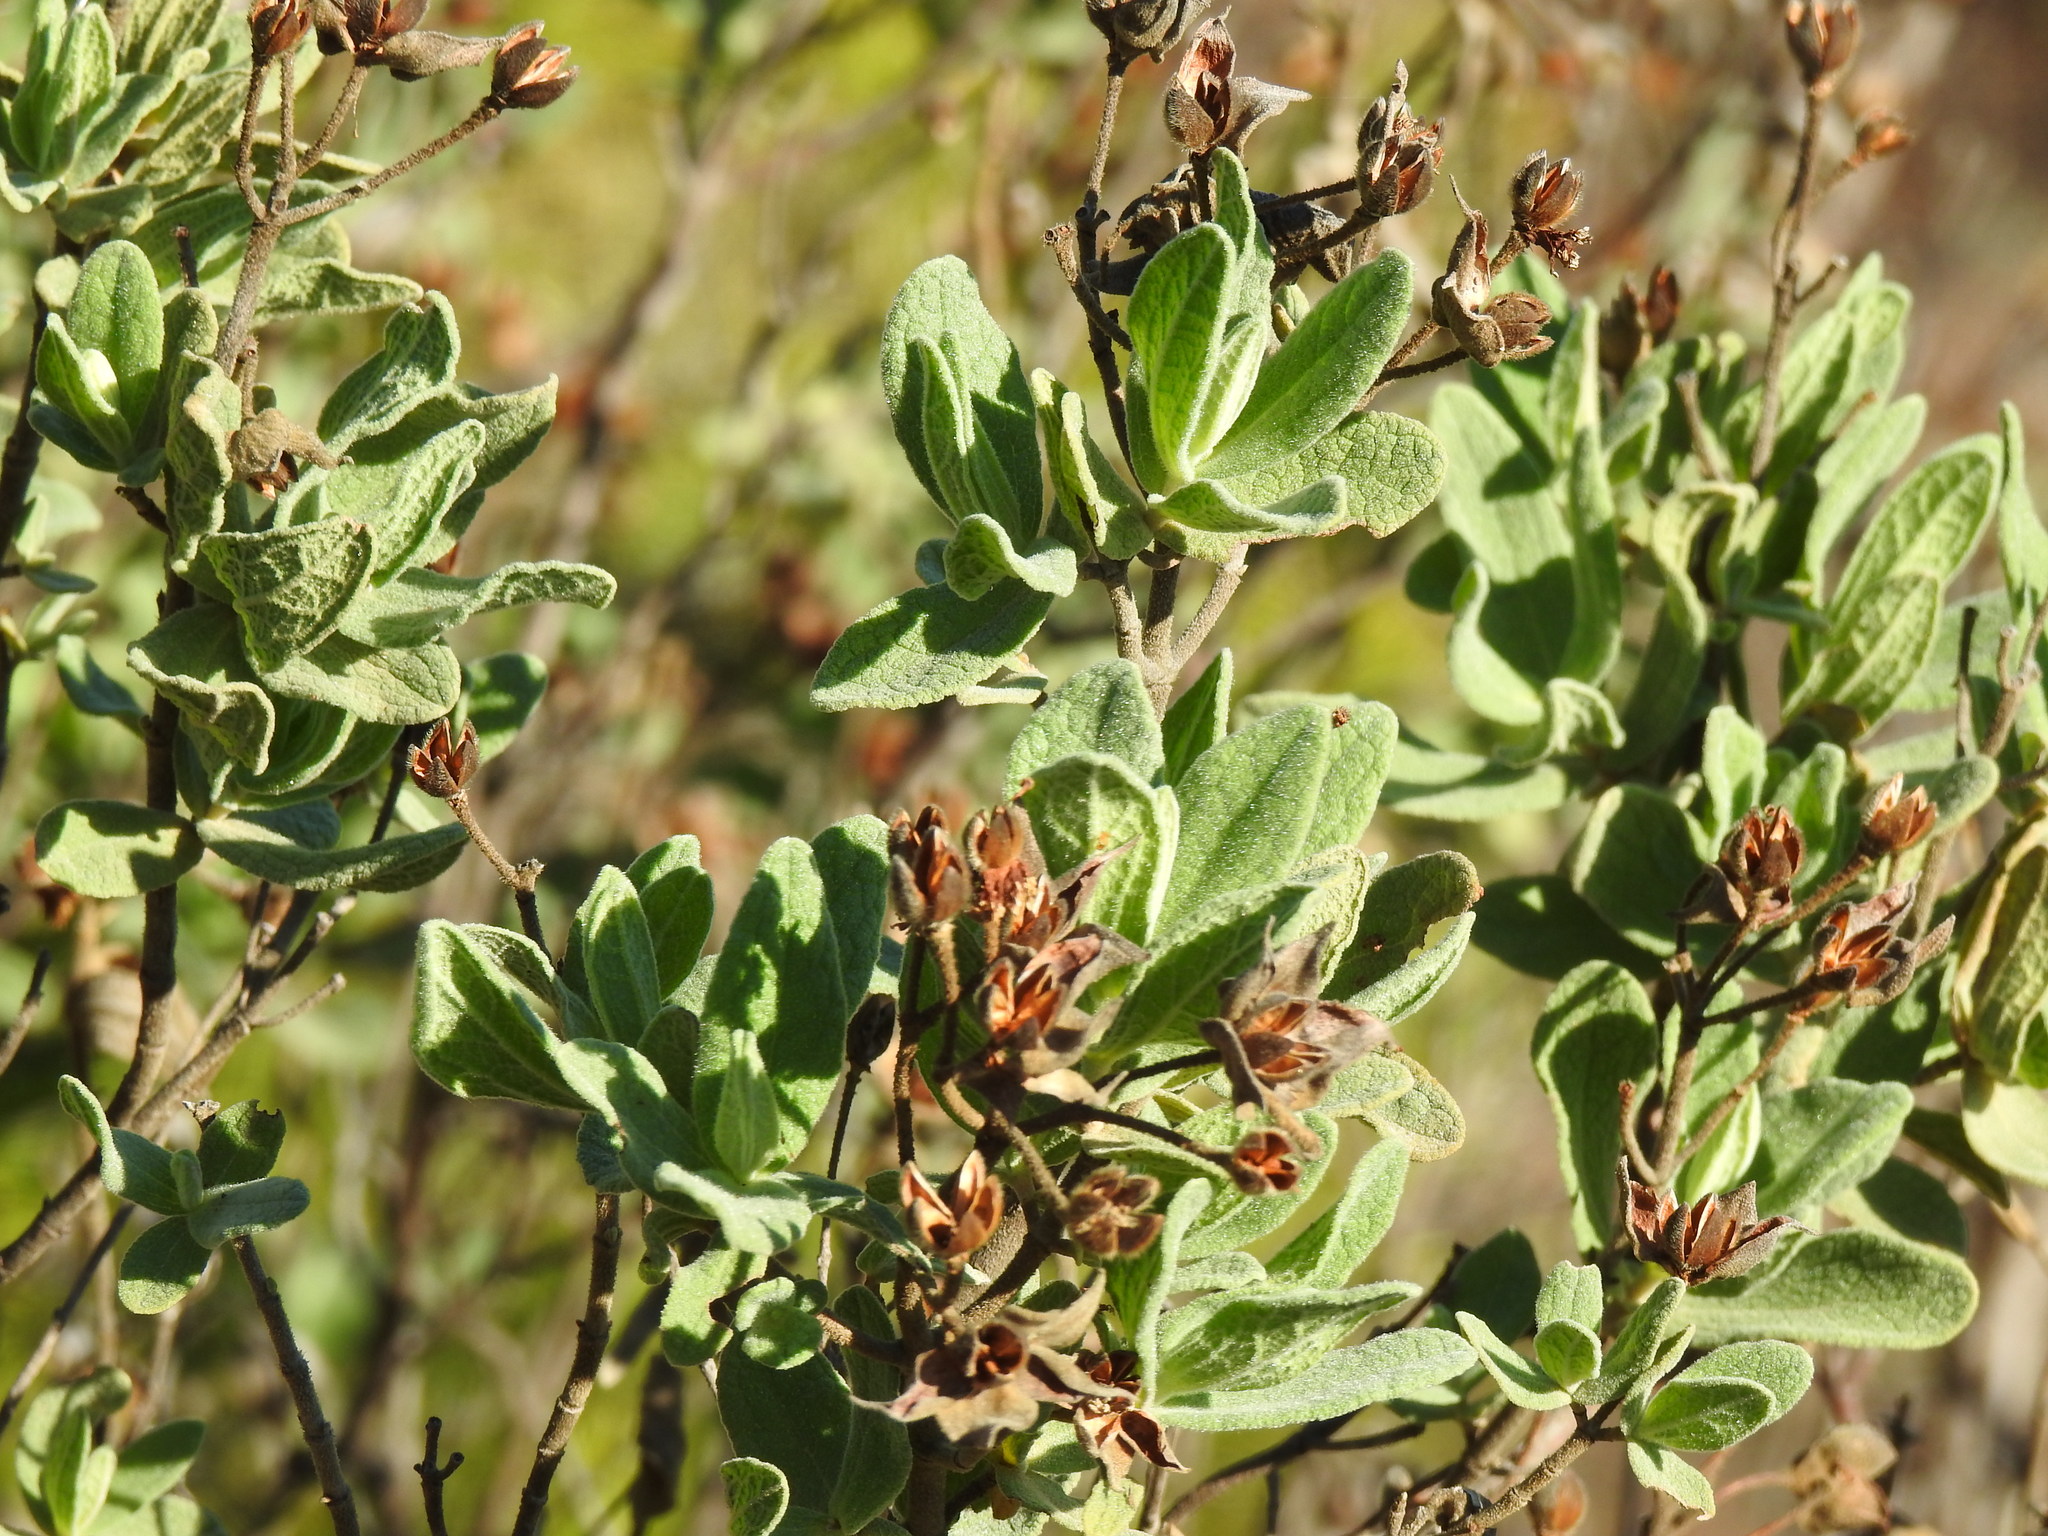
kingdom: Plantae
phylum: Tracheophyta
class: Magnoliopsida
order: Malvales
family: Cistaceae
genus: Cistus
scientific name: Cistus albidus
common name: White-leaf rock-rose
